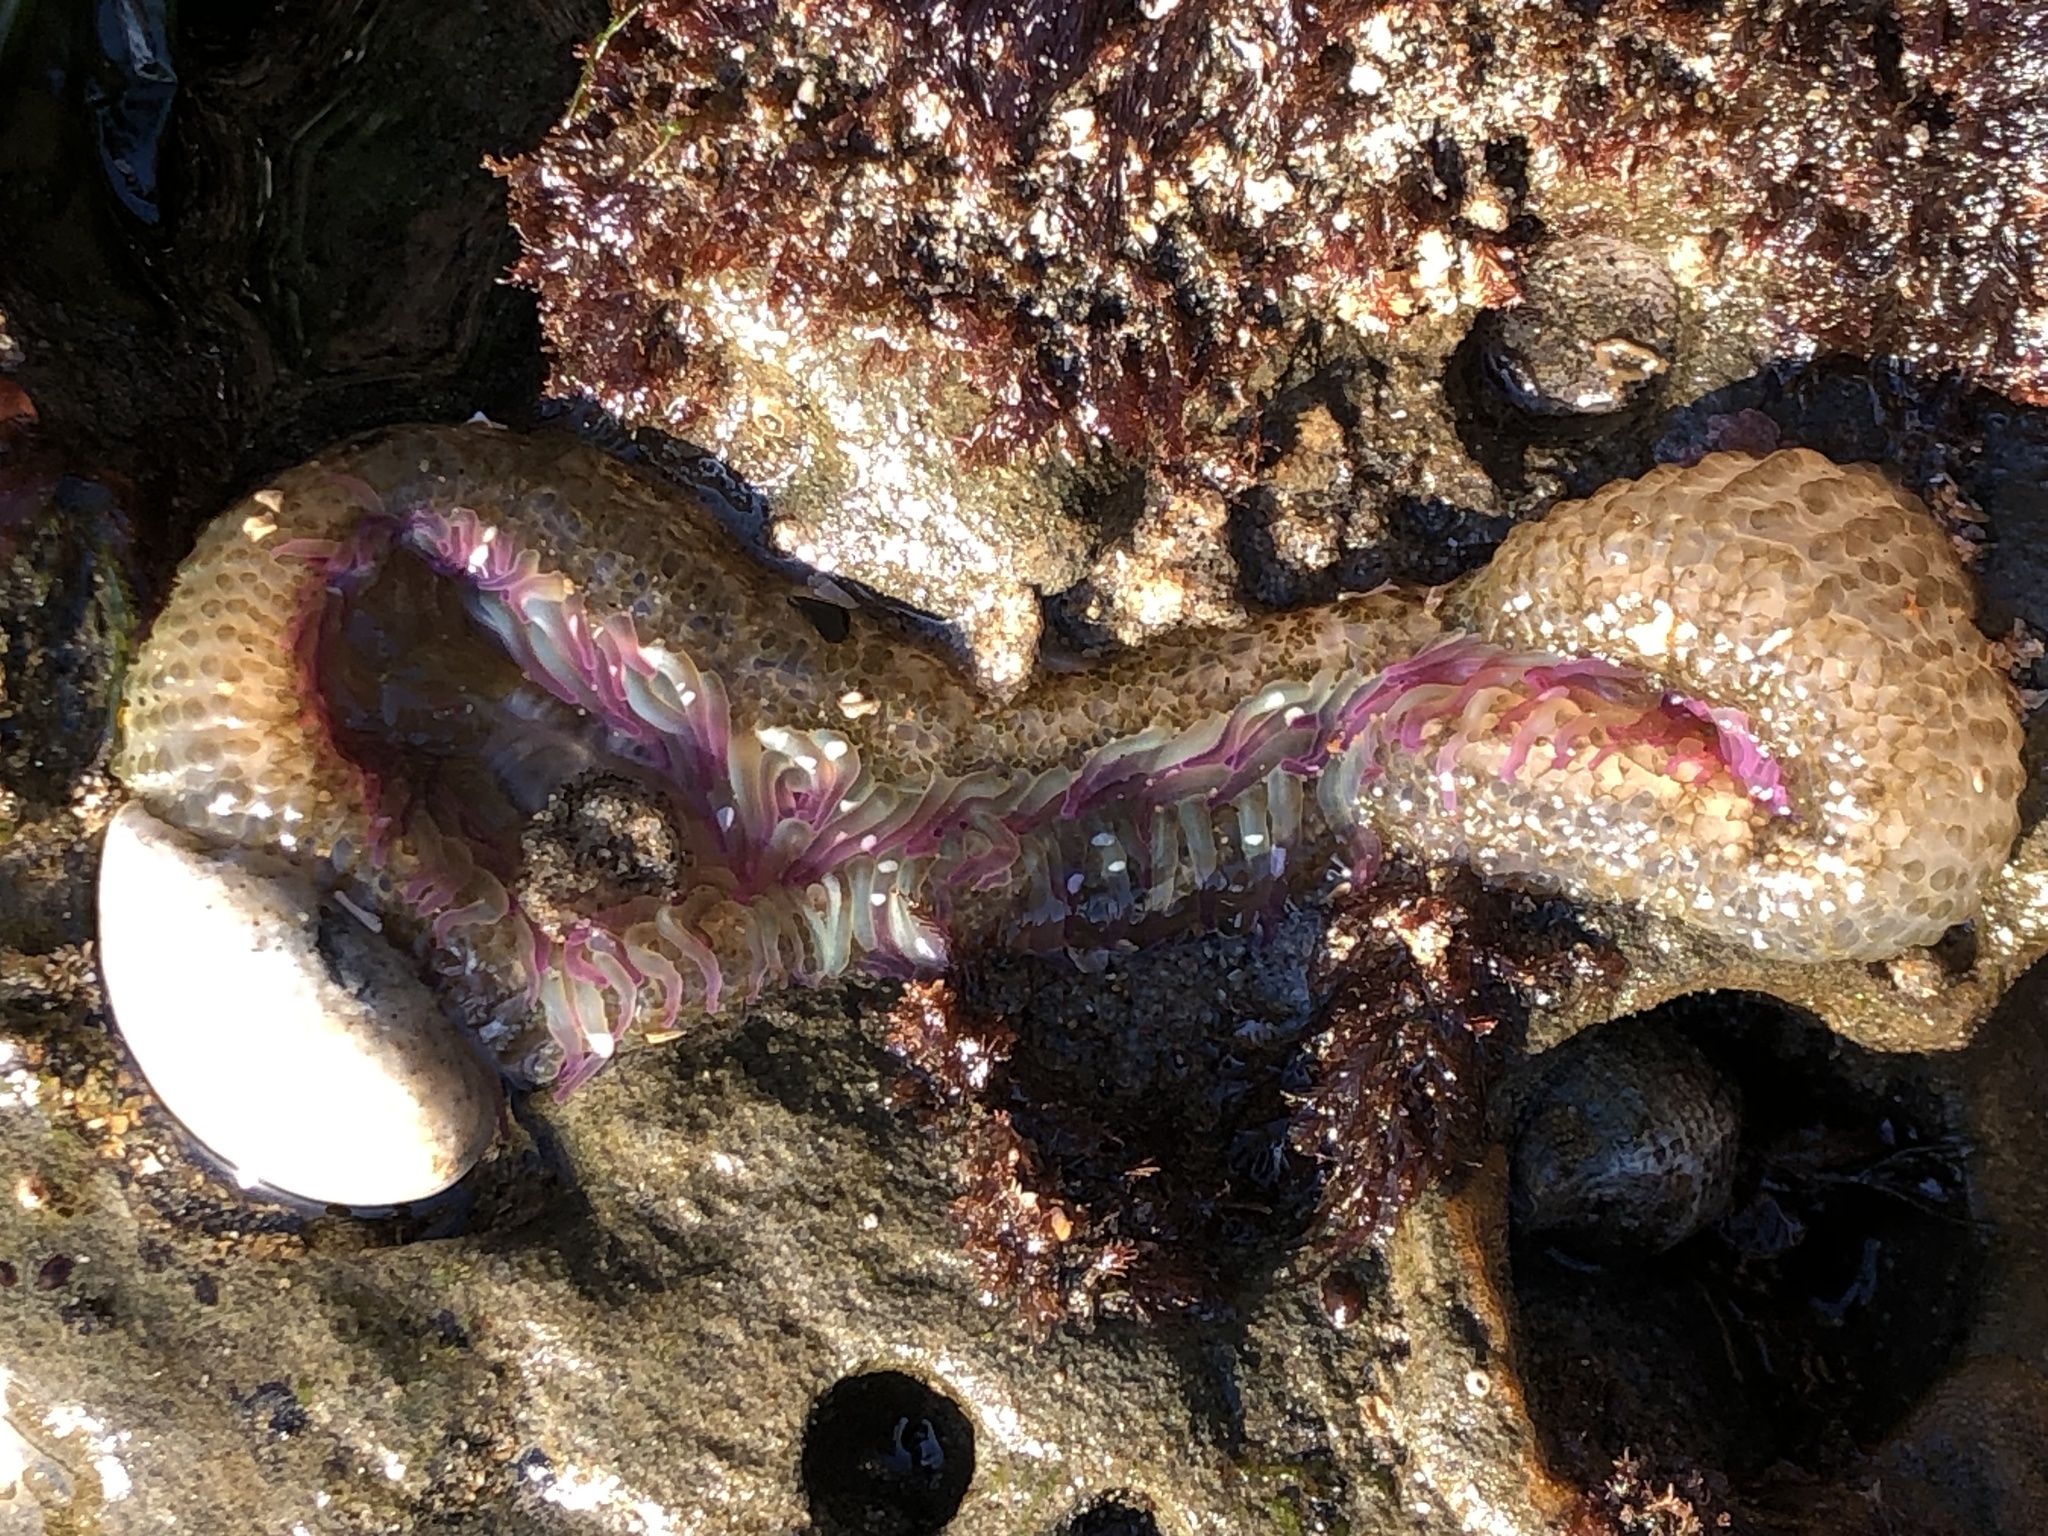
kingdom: Animalia
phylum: Cnidaria
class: Anthozoa
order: Actiniaria
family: Actiniidae
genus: Anthopleura
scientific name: Anthopleura elegantissima
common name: Clonal anemone
